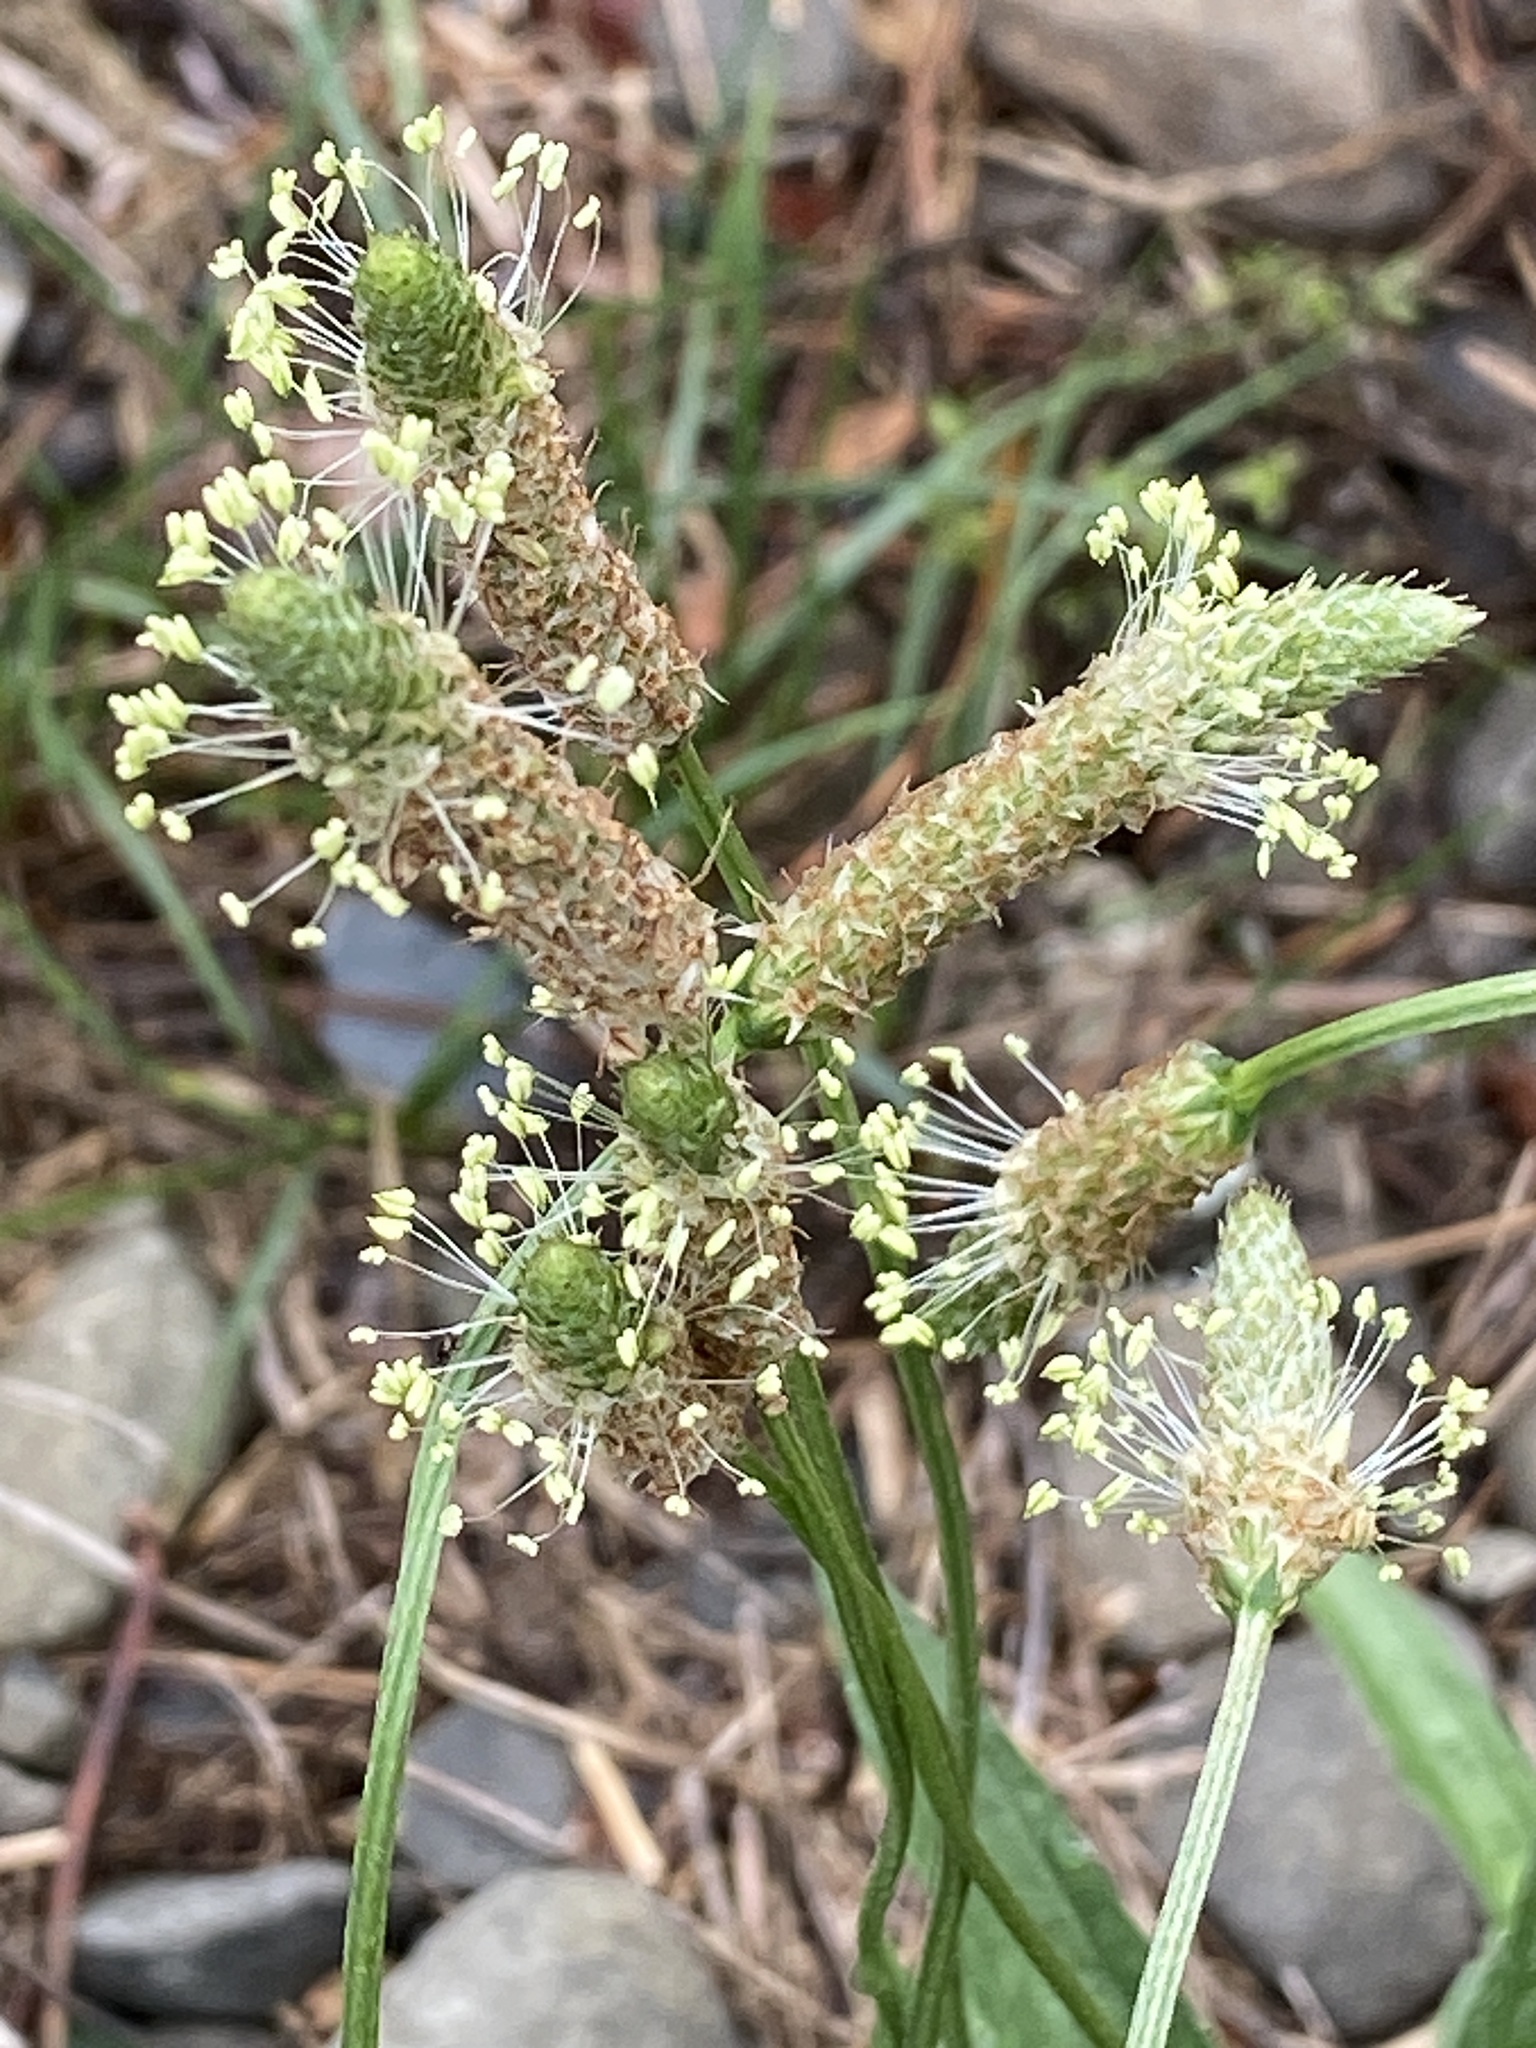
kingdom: Plantae
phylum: Tracheophyta
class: Magnoliopsida
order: Lamiales
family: Plantaginaceae
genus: Plantago
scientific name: Plantago lanceolata
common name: Ribwort plantain
